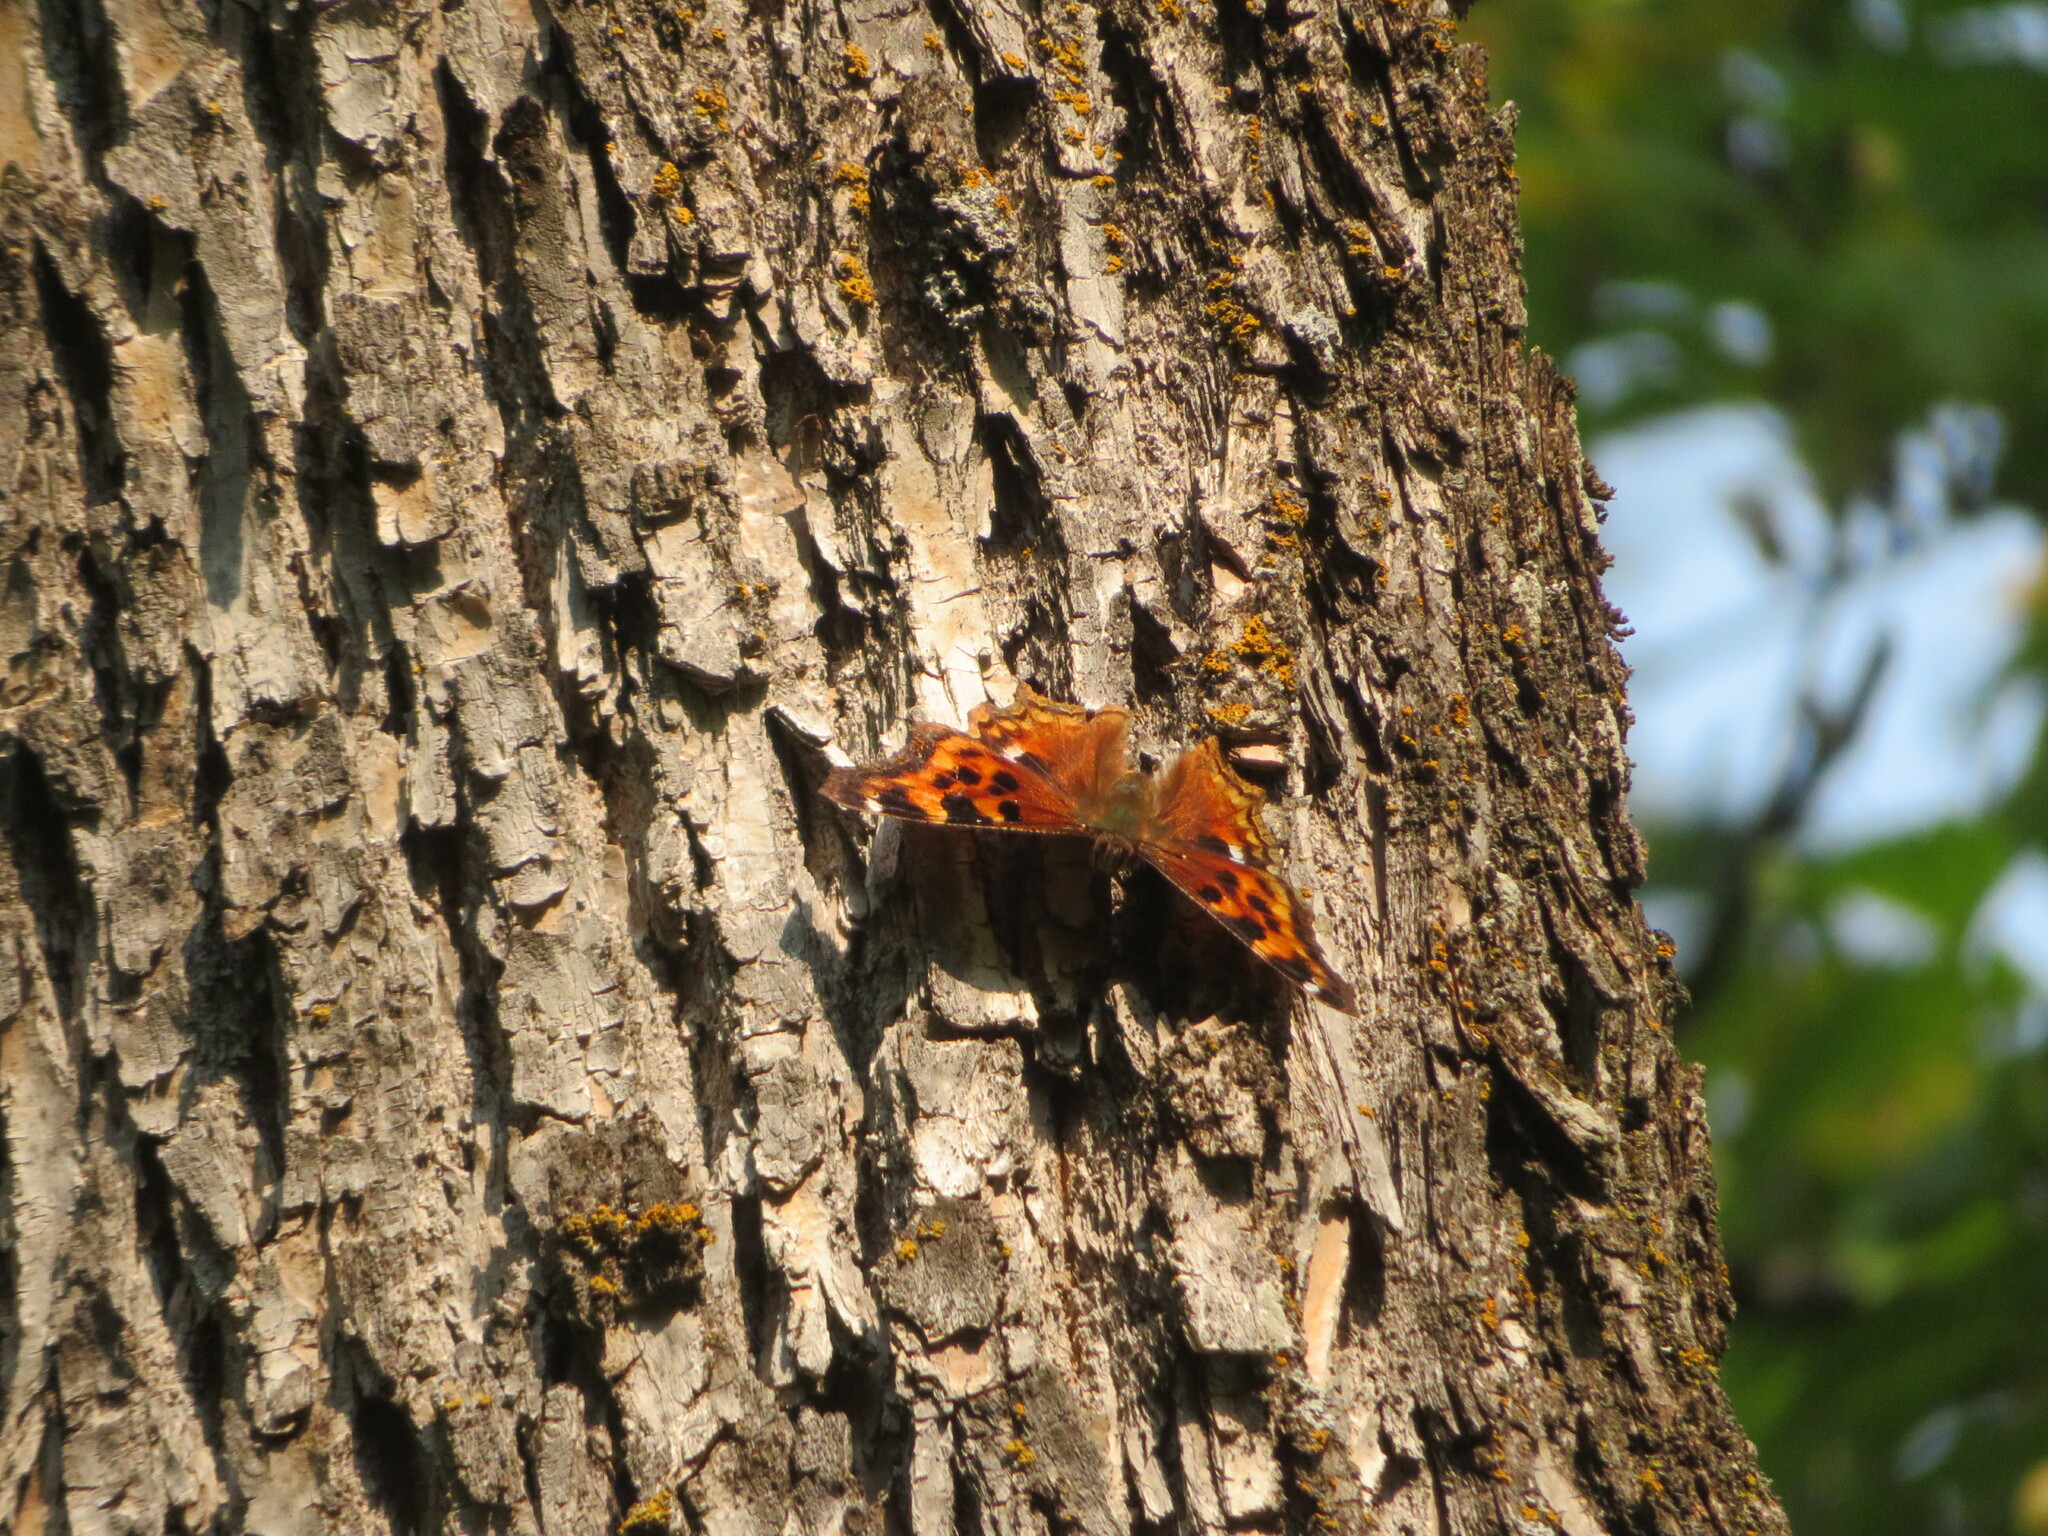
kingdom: Animalia
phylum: Arthropoda
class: Insecta
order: Lepidoptera
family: Nymphalidae
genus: Polygonia
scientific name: Polygonia vaualbum
